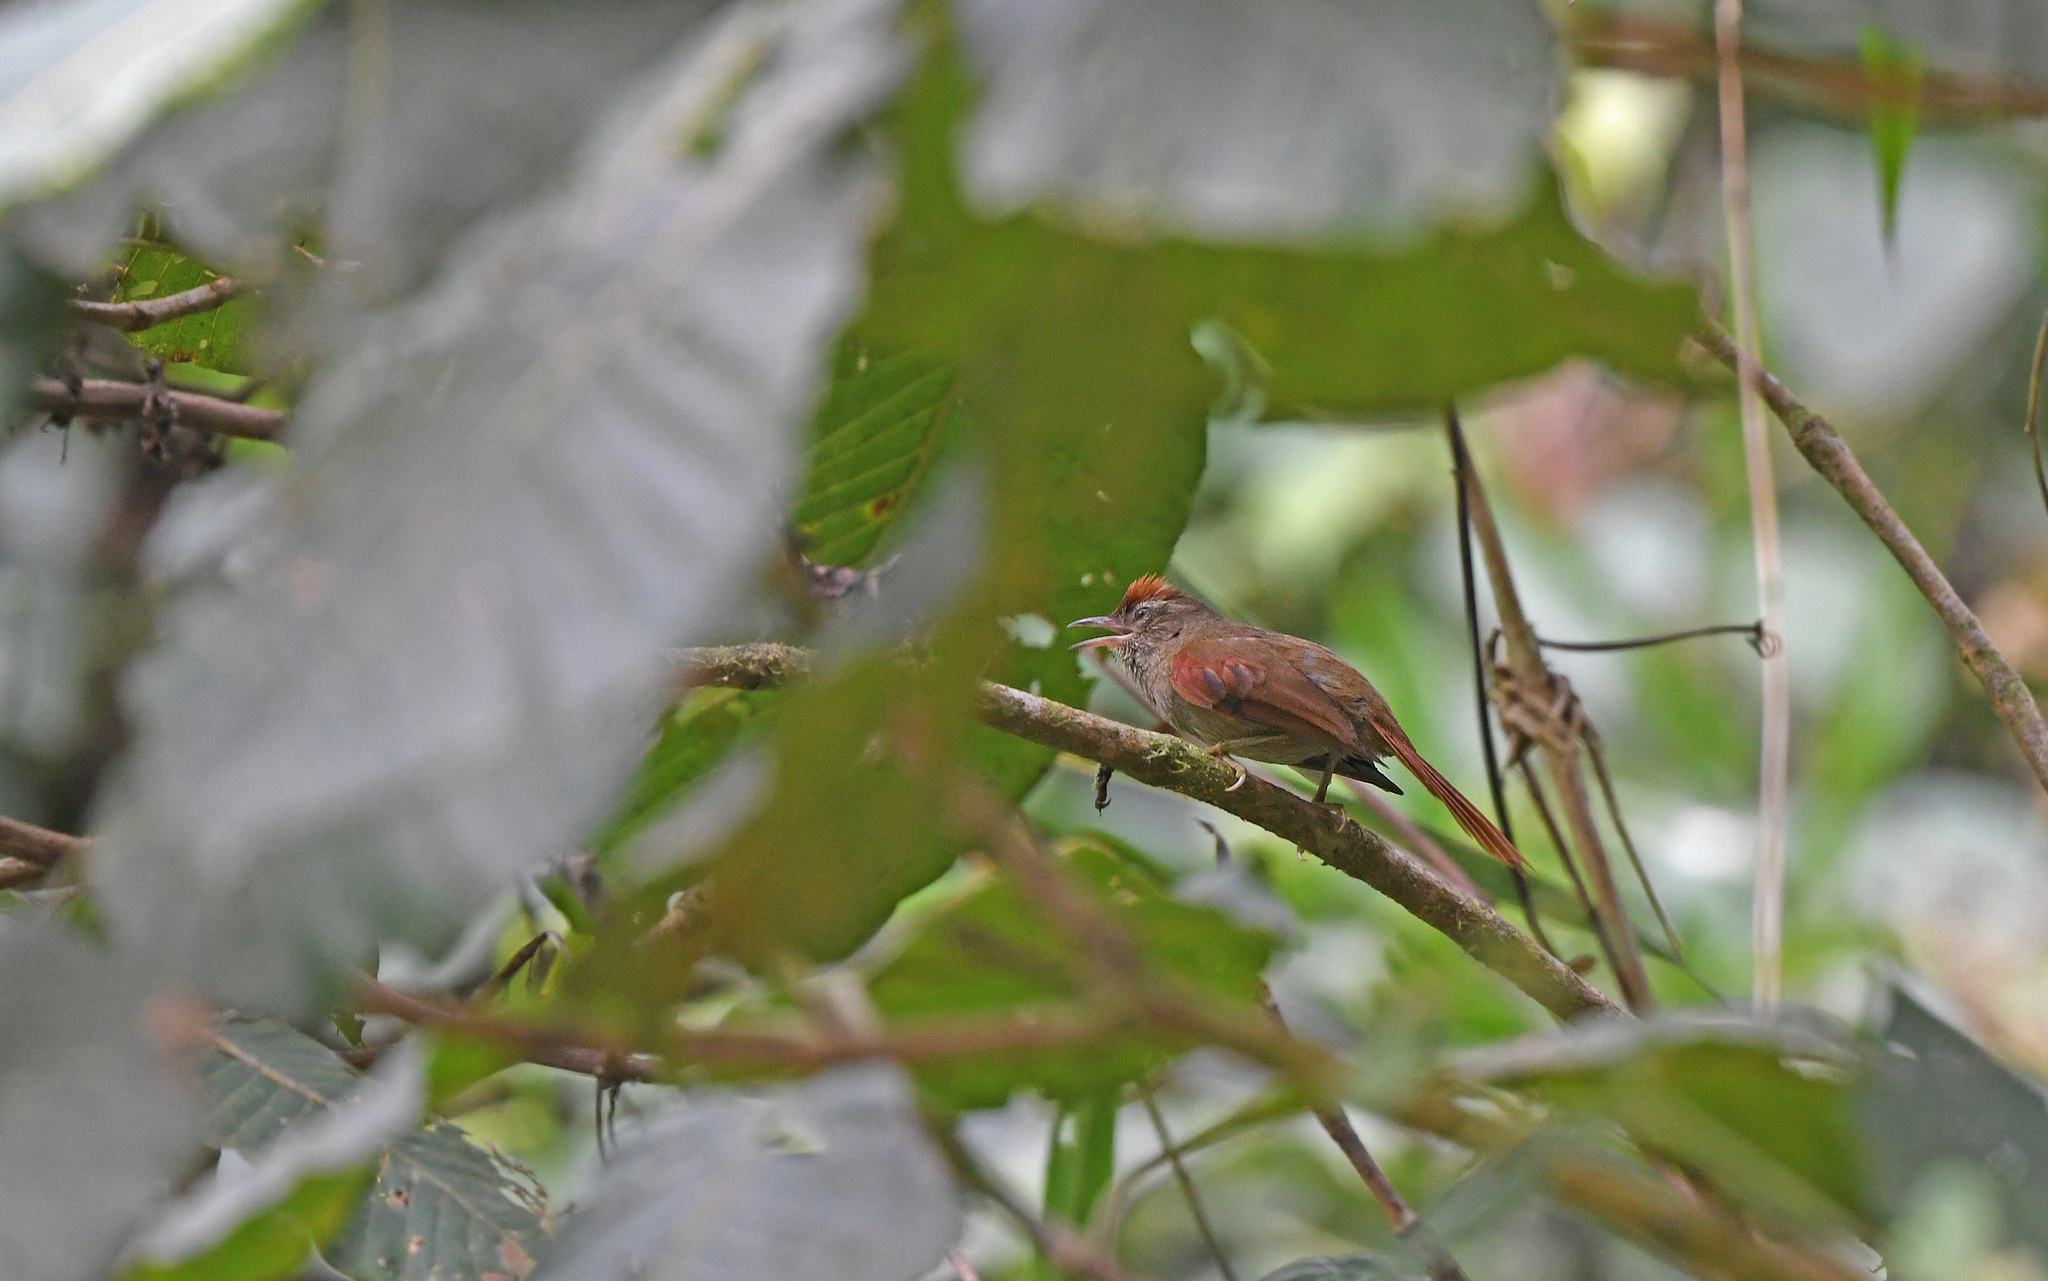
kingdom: Animalia
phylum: Chordata
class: Aves
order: Passeriformes
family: Furnariidae
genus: Cranioleuca
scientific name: Cranioleuca curtata
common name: Ash-browed spinetail
